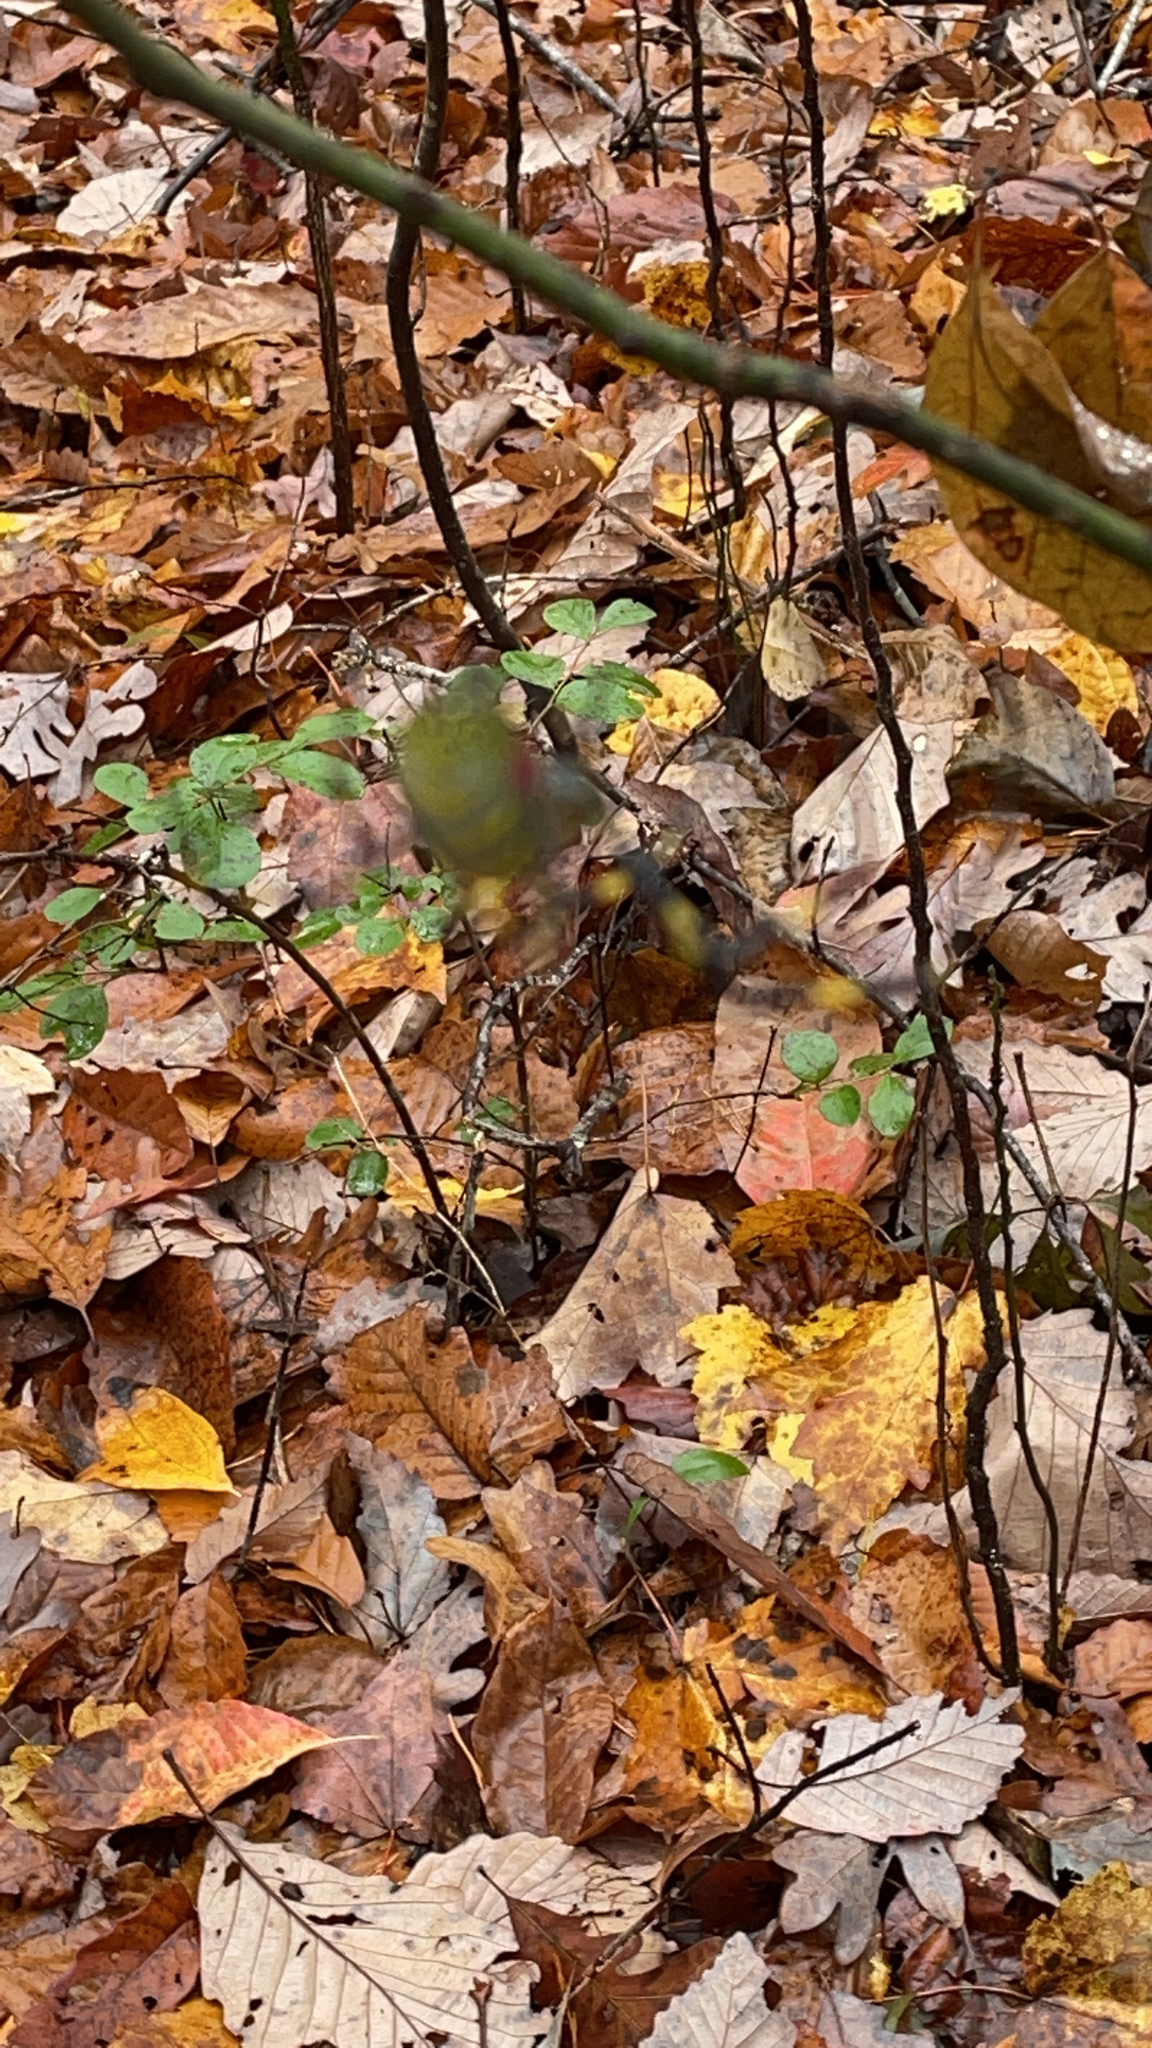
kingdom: Animalia
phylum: Arthropoda
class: Arachnida
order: Araneae
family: Araneidae
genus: Trichonephila
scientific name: Trichonephila clavata
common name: Jorō spider
